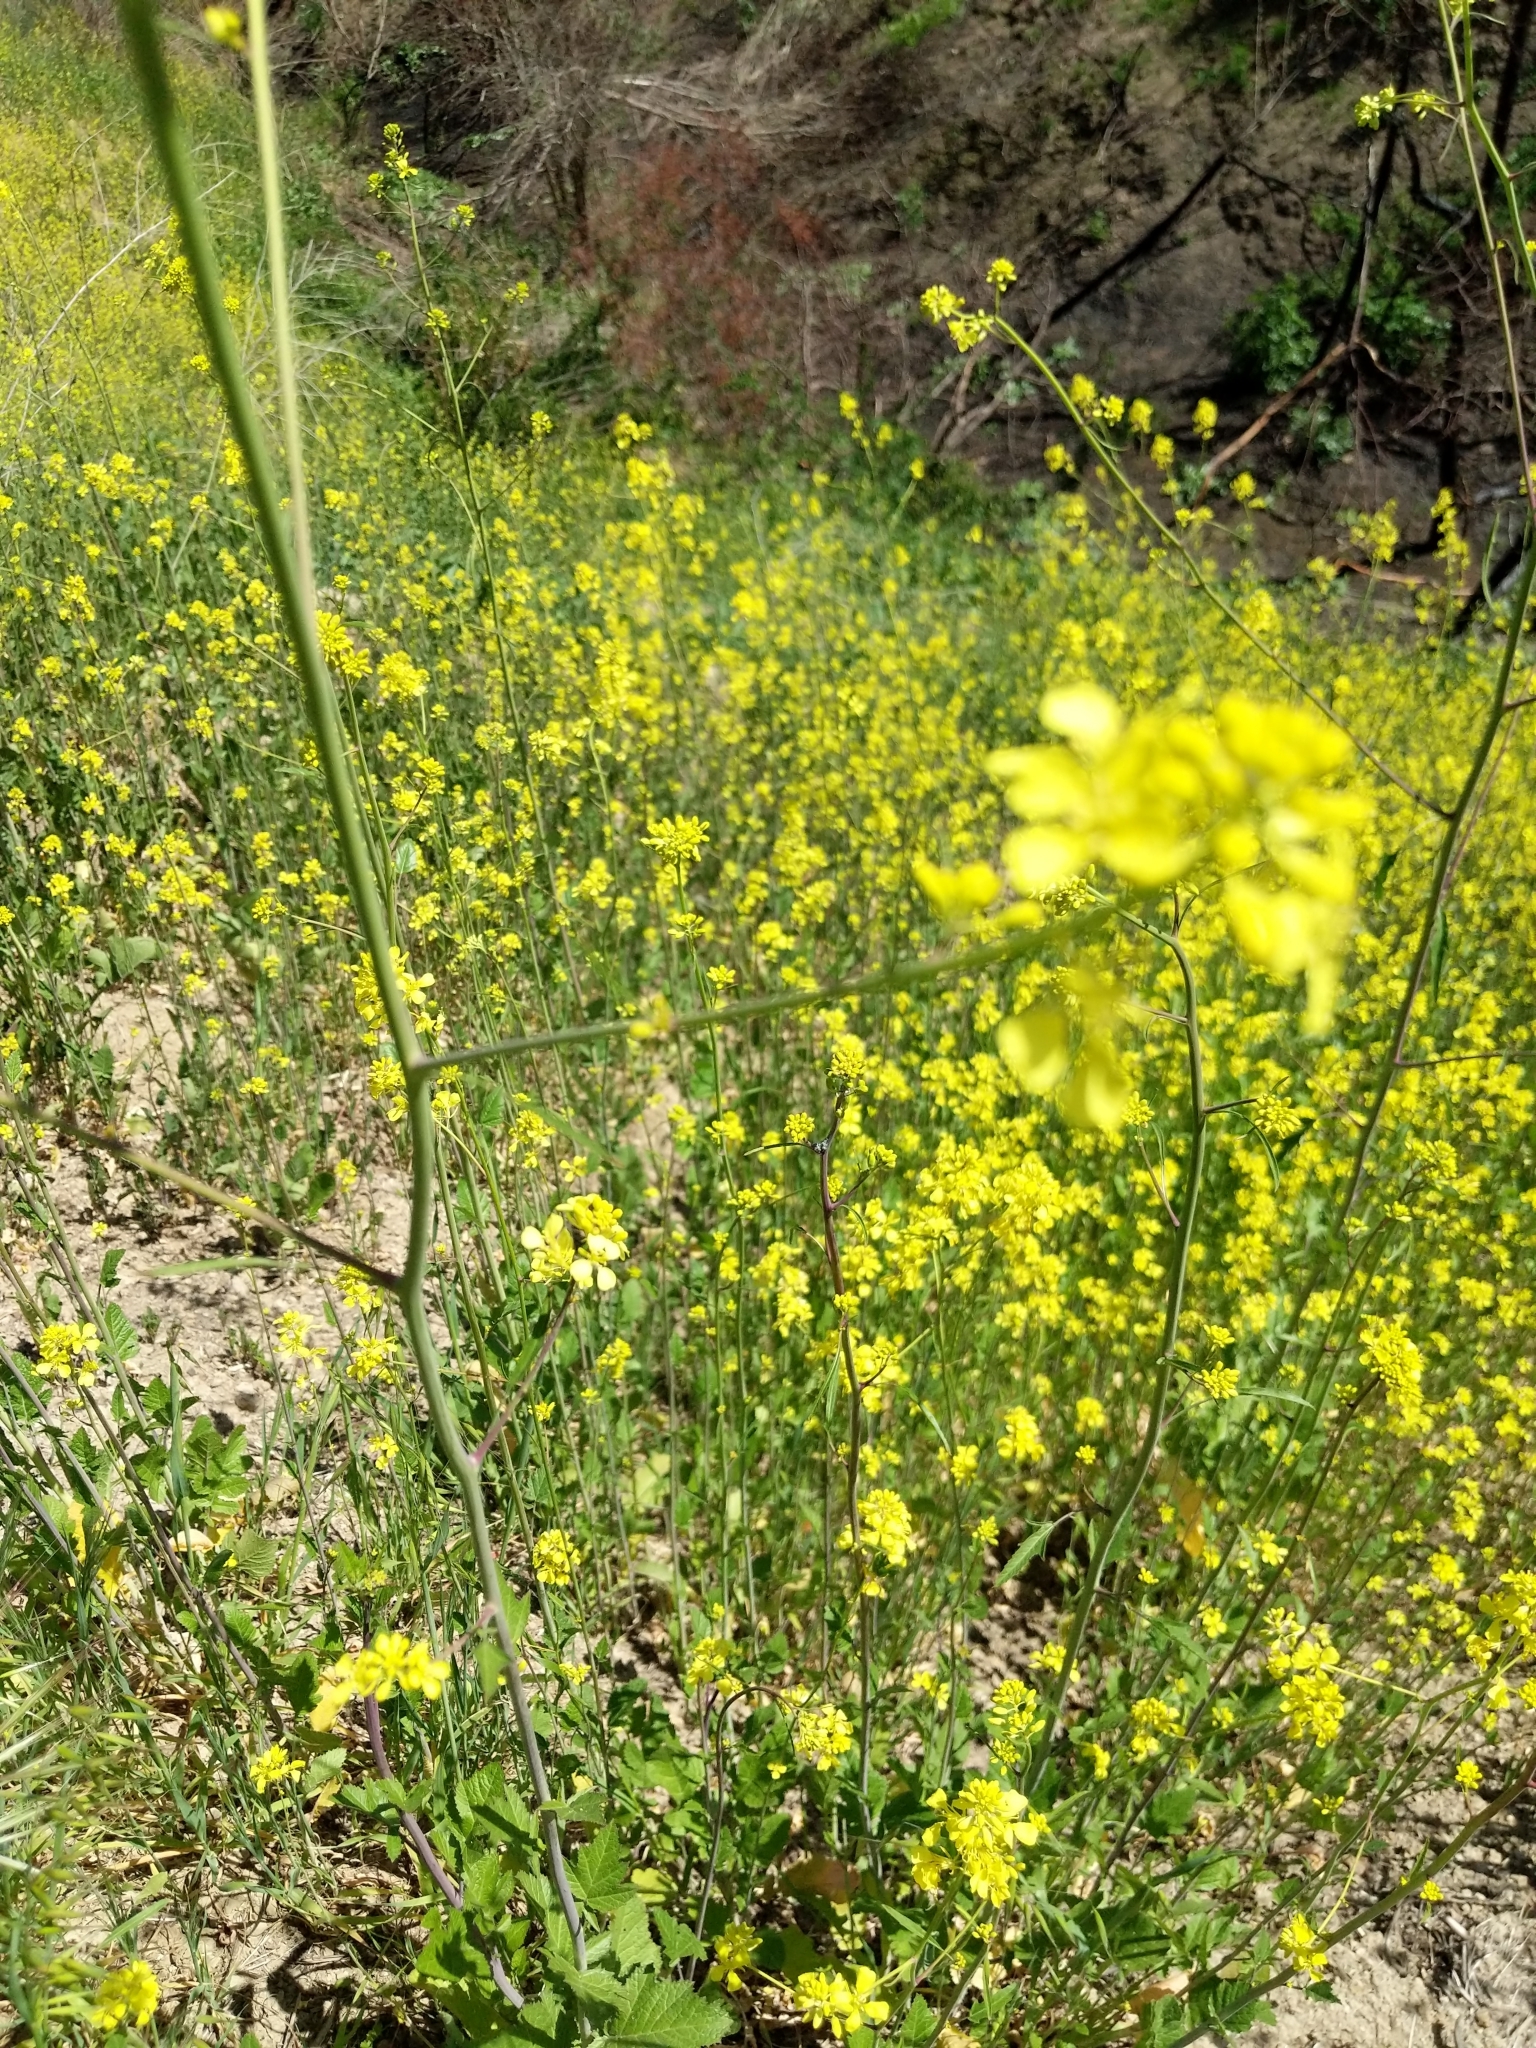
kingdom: Plantae
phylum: Tracheophyta
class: Magnoliopsida
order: Brassicales
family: Brassicaceae
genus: Brassica
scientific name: Brassica nigra
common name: Black mustard
